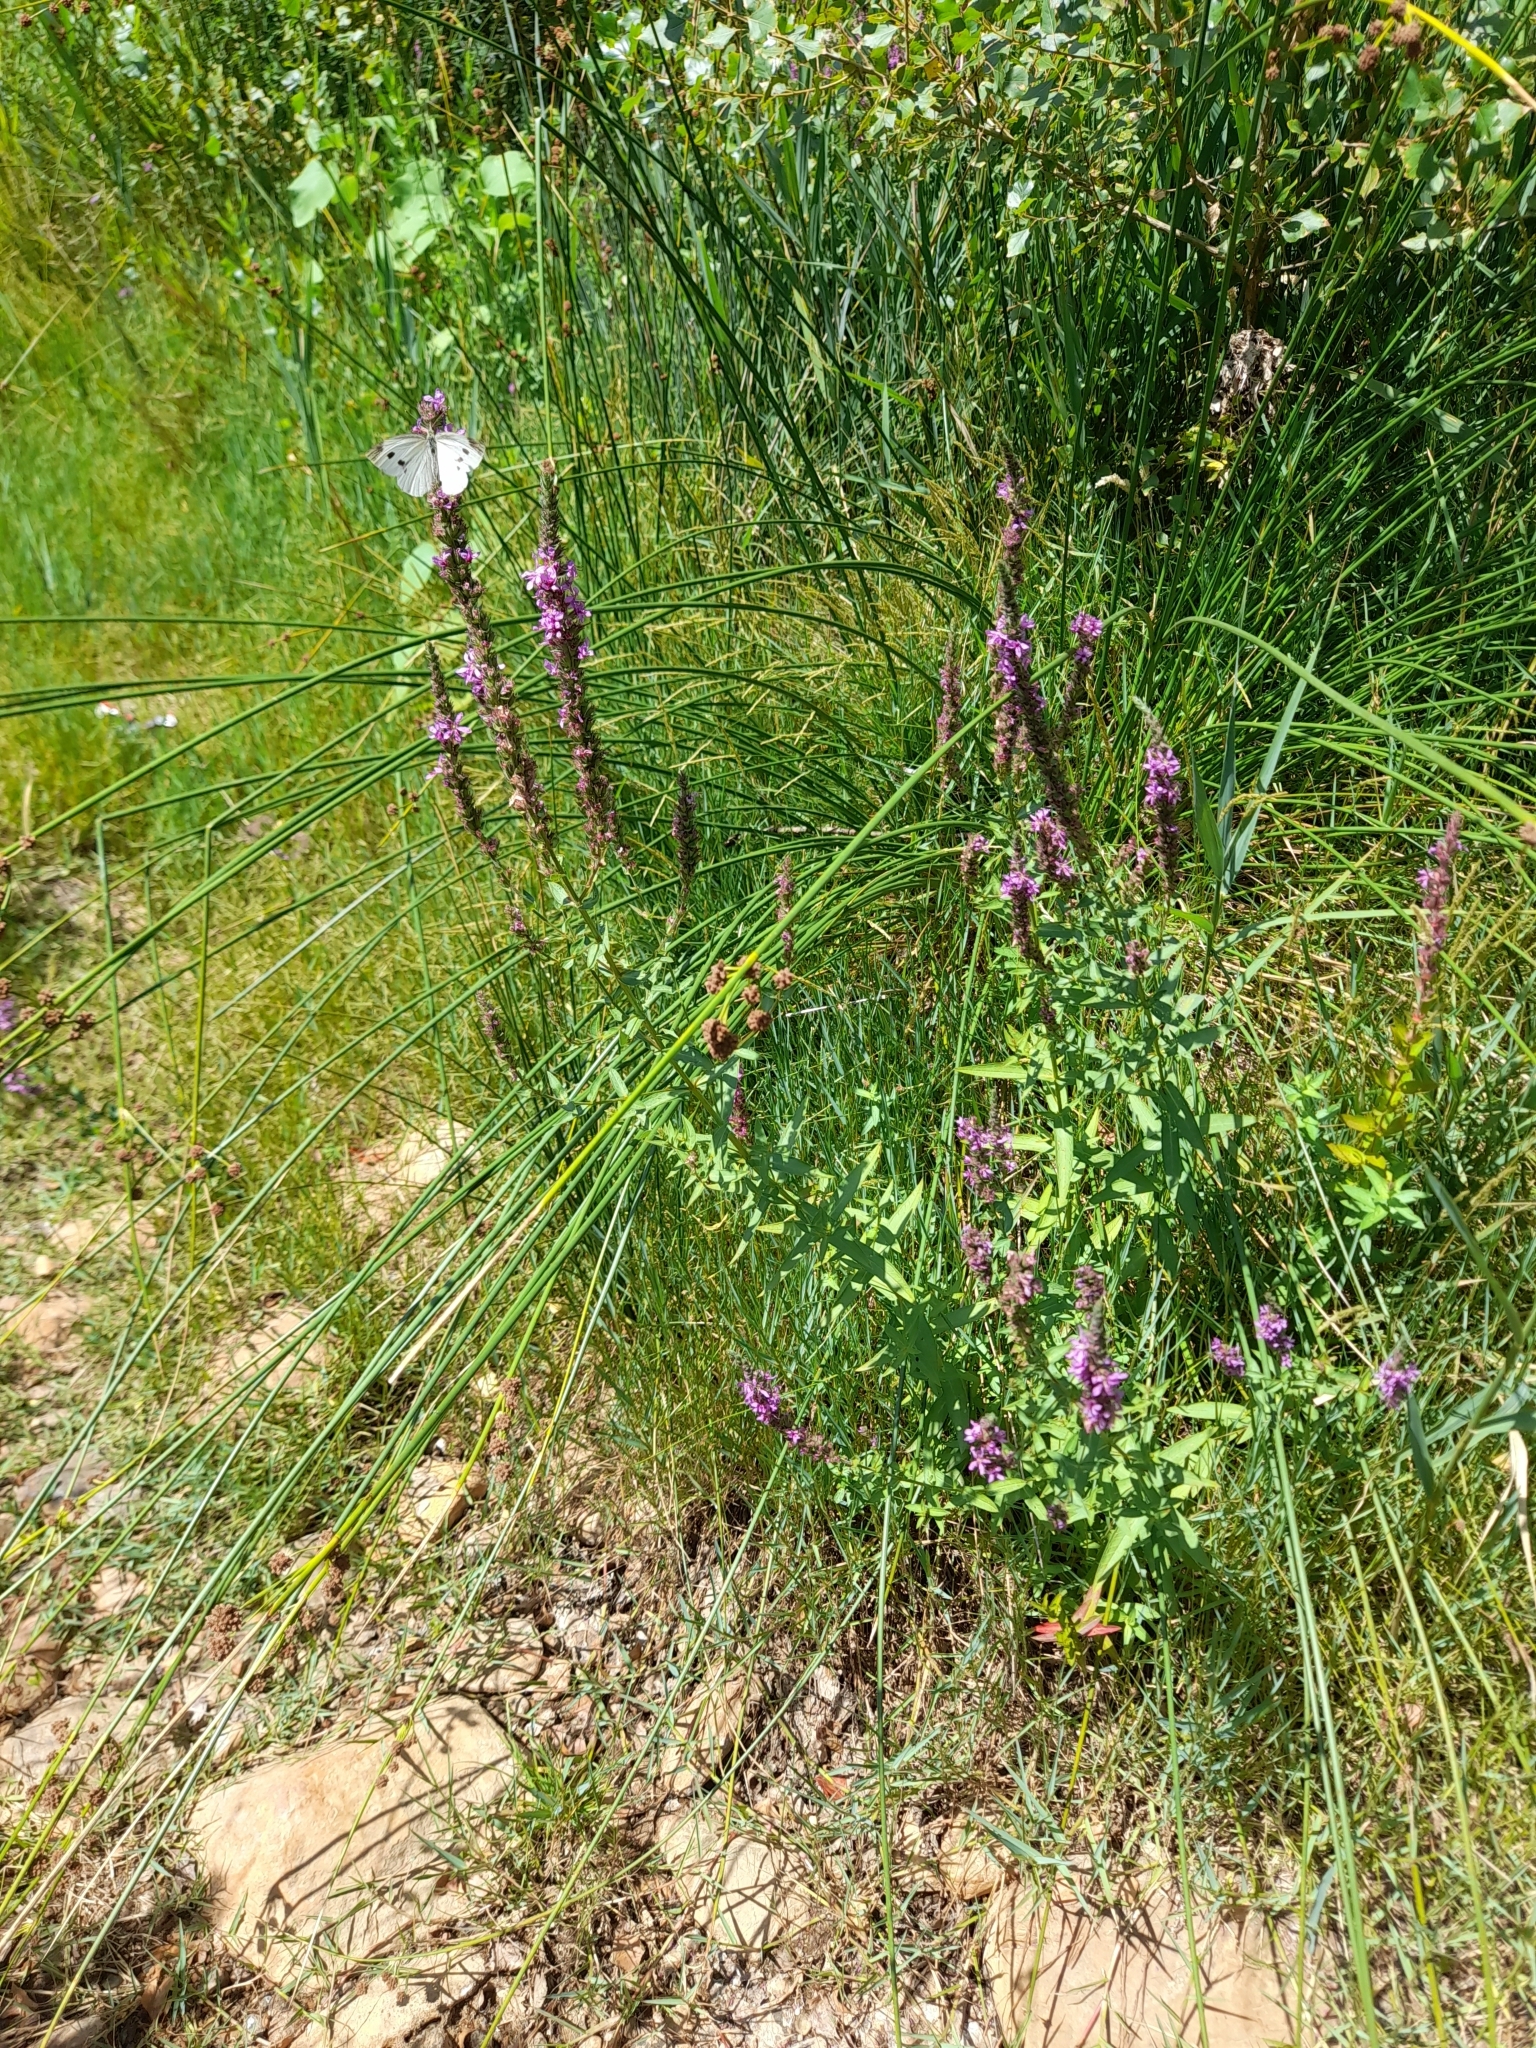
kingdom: Plantae
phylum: Tracheophyta
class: Magnoliopsida
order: Myrtales
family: Lythraceae
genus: Lythrum
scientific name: Lythrum salicaria
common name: Purple loosestrife
